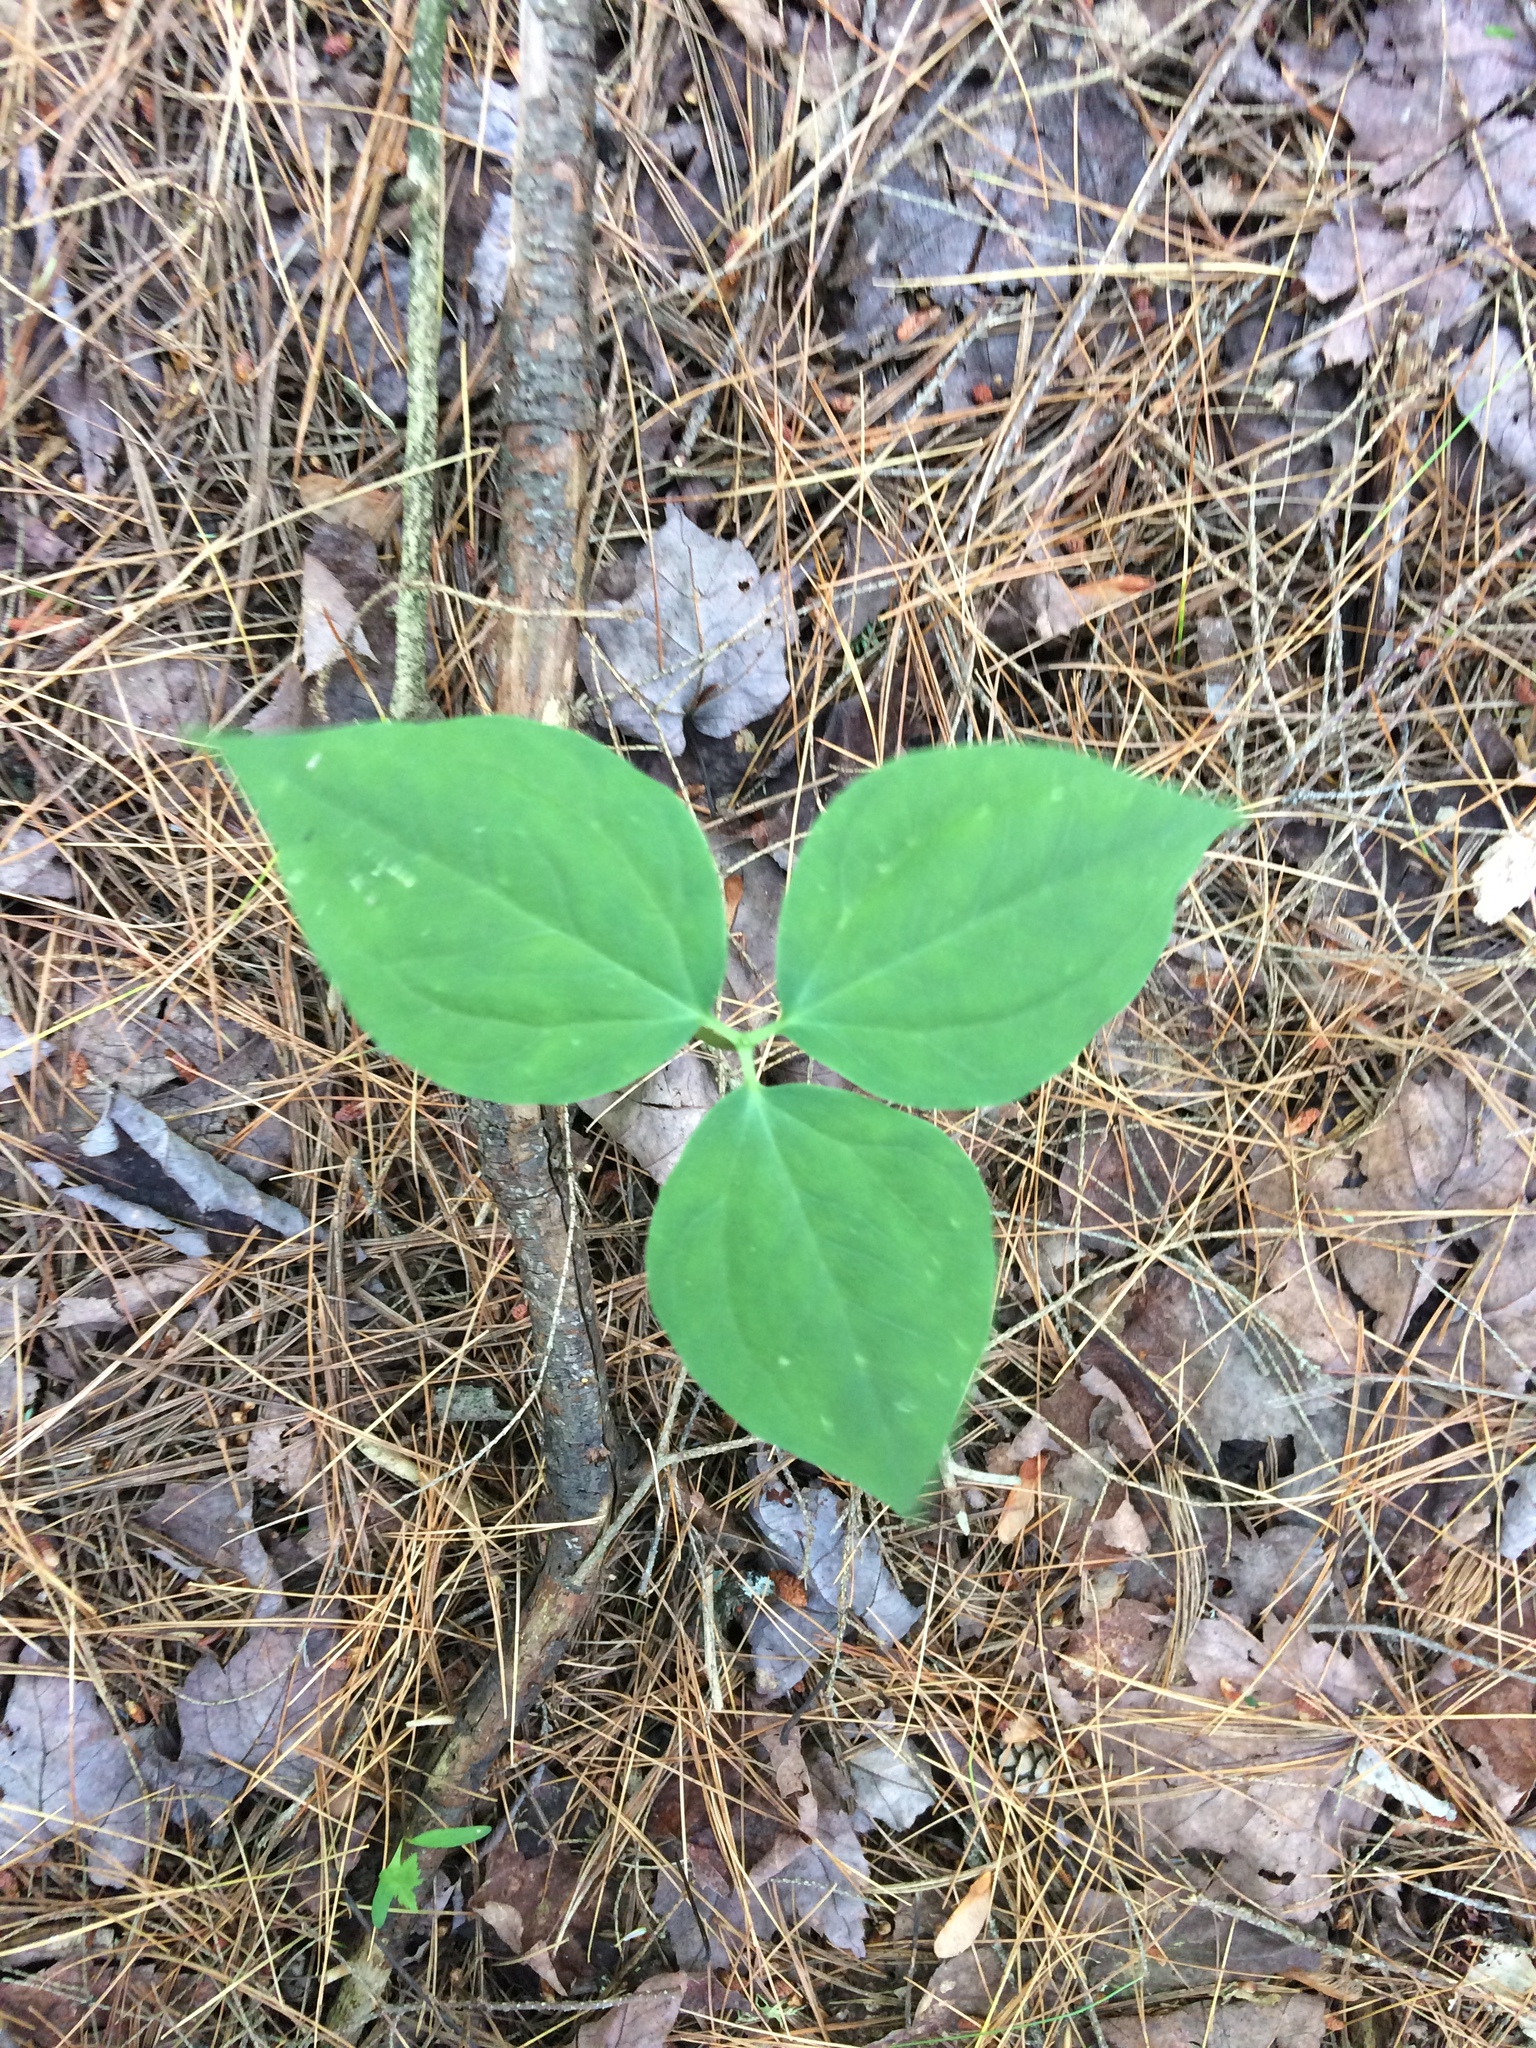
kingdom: Plantae
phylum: Tracheophyta
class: Liliopsida
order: Liliales
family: Melanthiaceae
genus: Trillium
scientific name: Trillium undulatum
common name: Paint trillium
